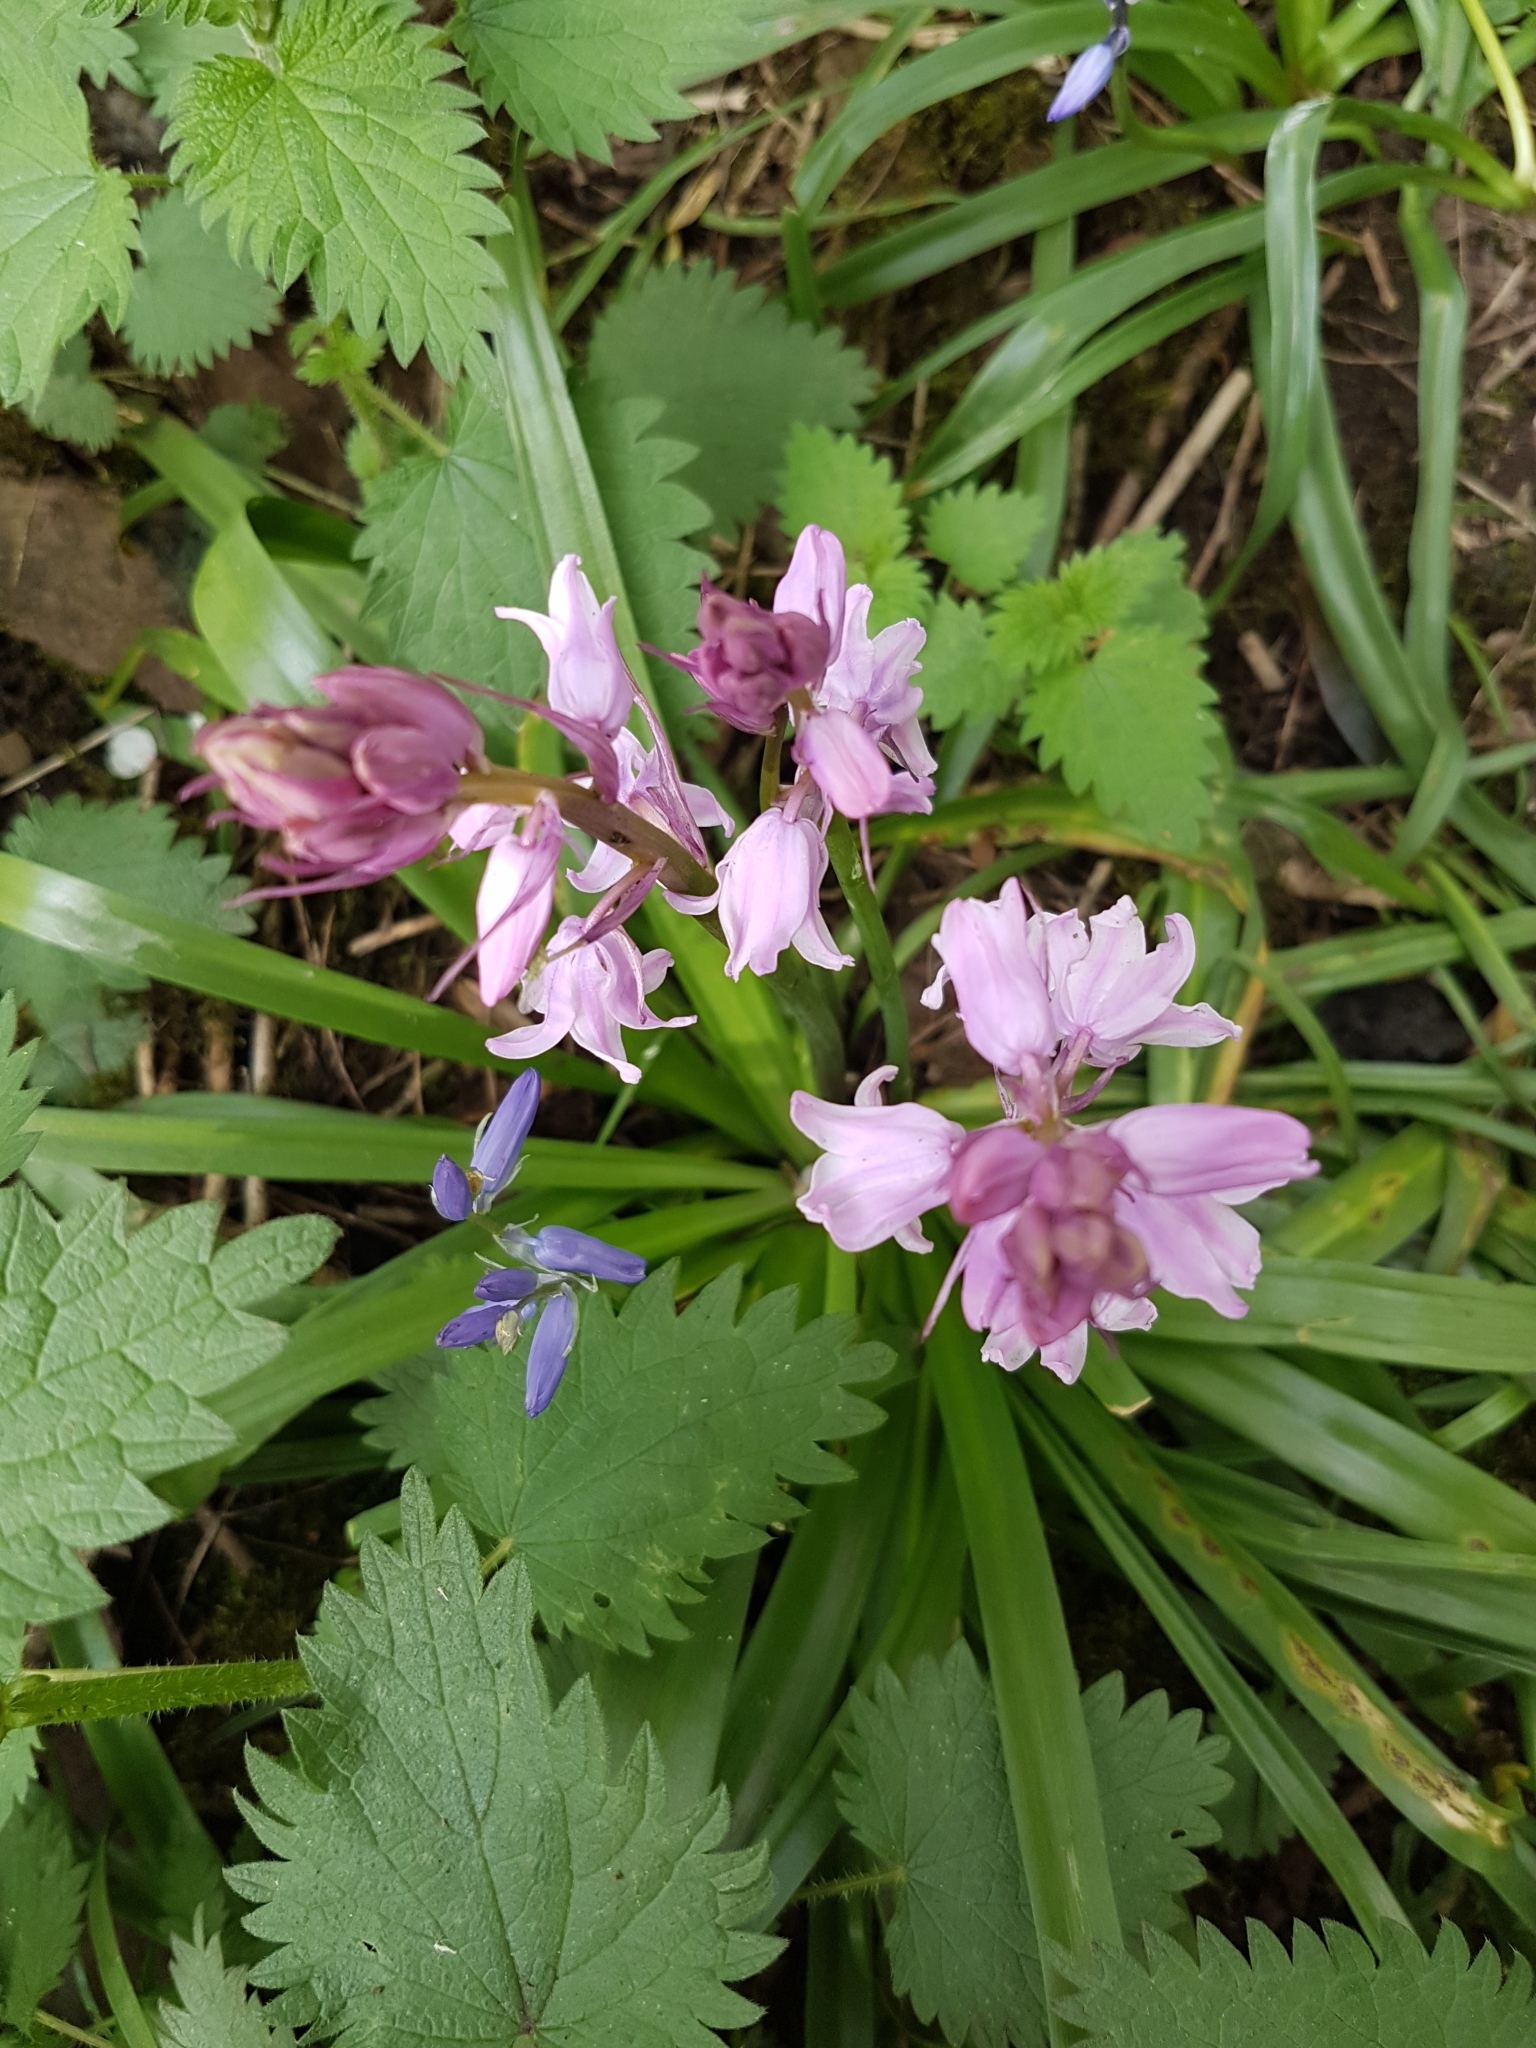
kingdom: Plantae
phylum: Tracheophyta
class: Liliopsida
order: Asparagales
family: Asparagaceae
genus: Hyacinthoides
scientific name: Hyacinthoides massartiana
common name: Hyacinthoides
